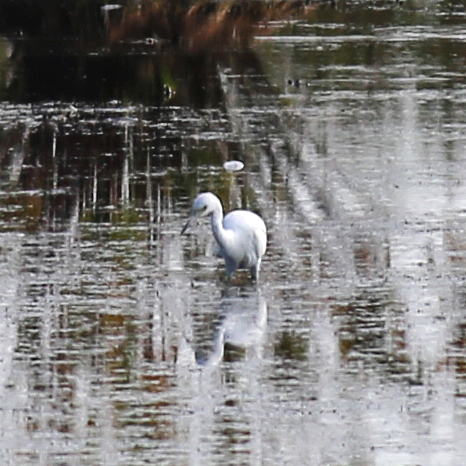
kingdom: Animalia
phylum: Chordata
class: Aves
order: Pelecaniformes
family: Ardeidae
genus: Egretta
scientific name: Egretta caerulea
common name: Little blue heron
